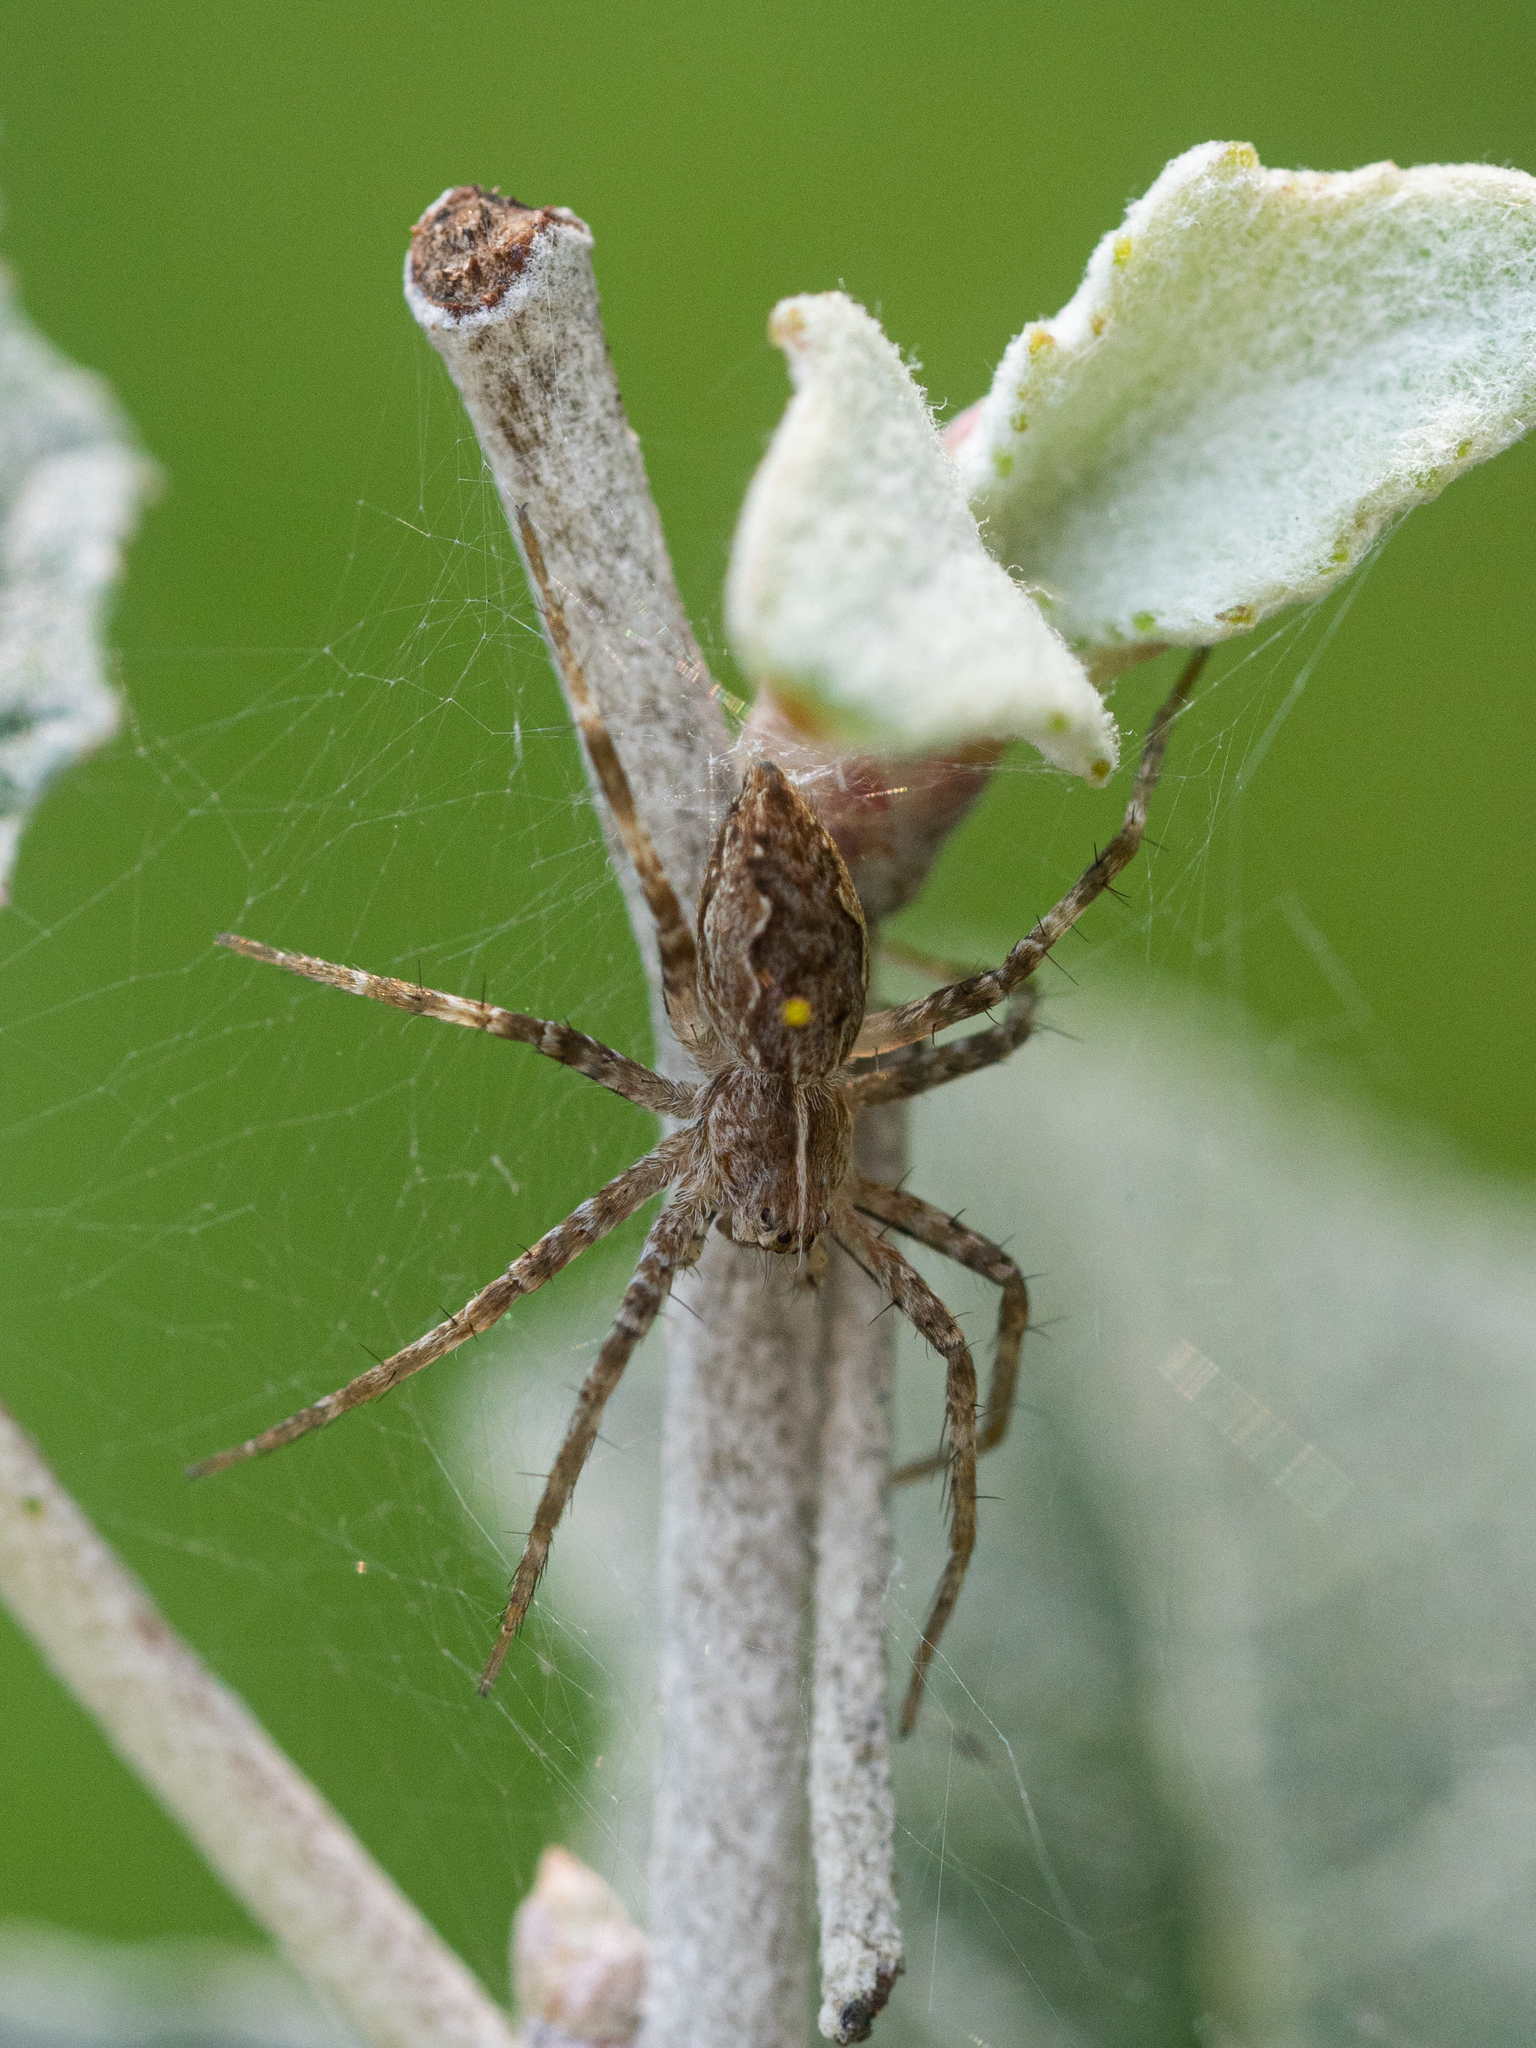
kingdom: Animalia
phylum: Arthropoda
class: Arachnida
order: Araneae
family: Pisauridae
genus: Pisaura
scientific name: Pisaura mirabilis
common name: Tent spider
